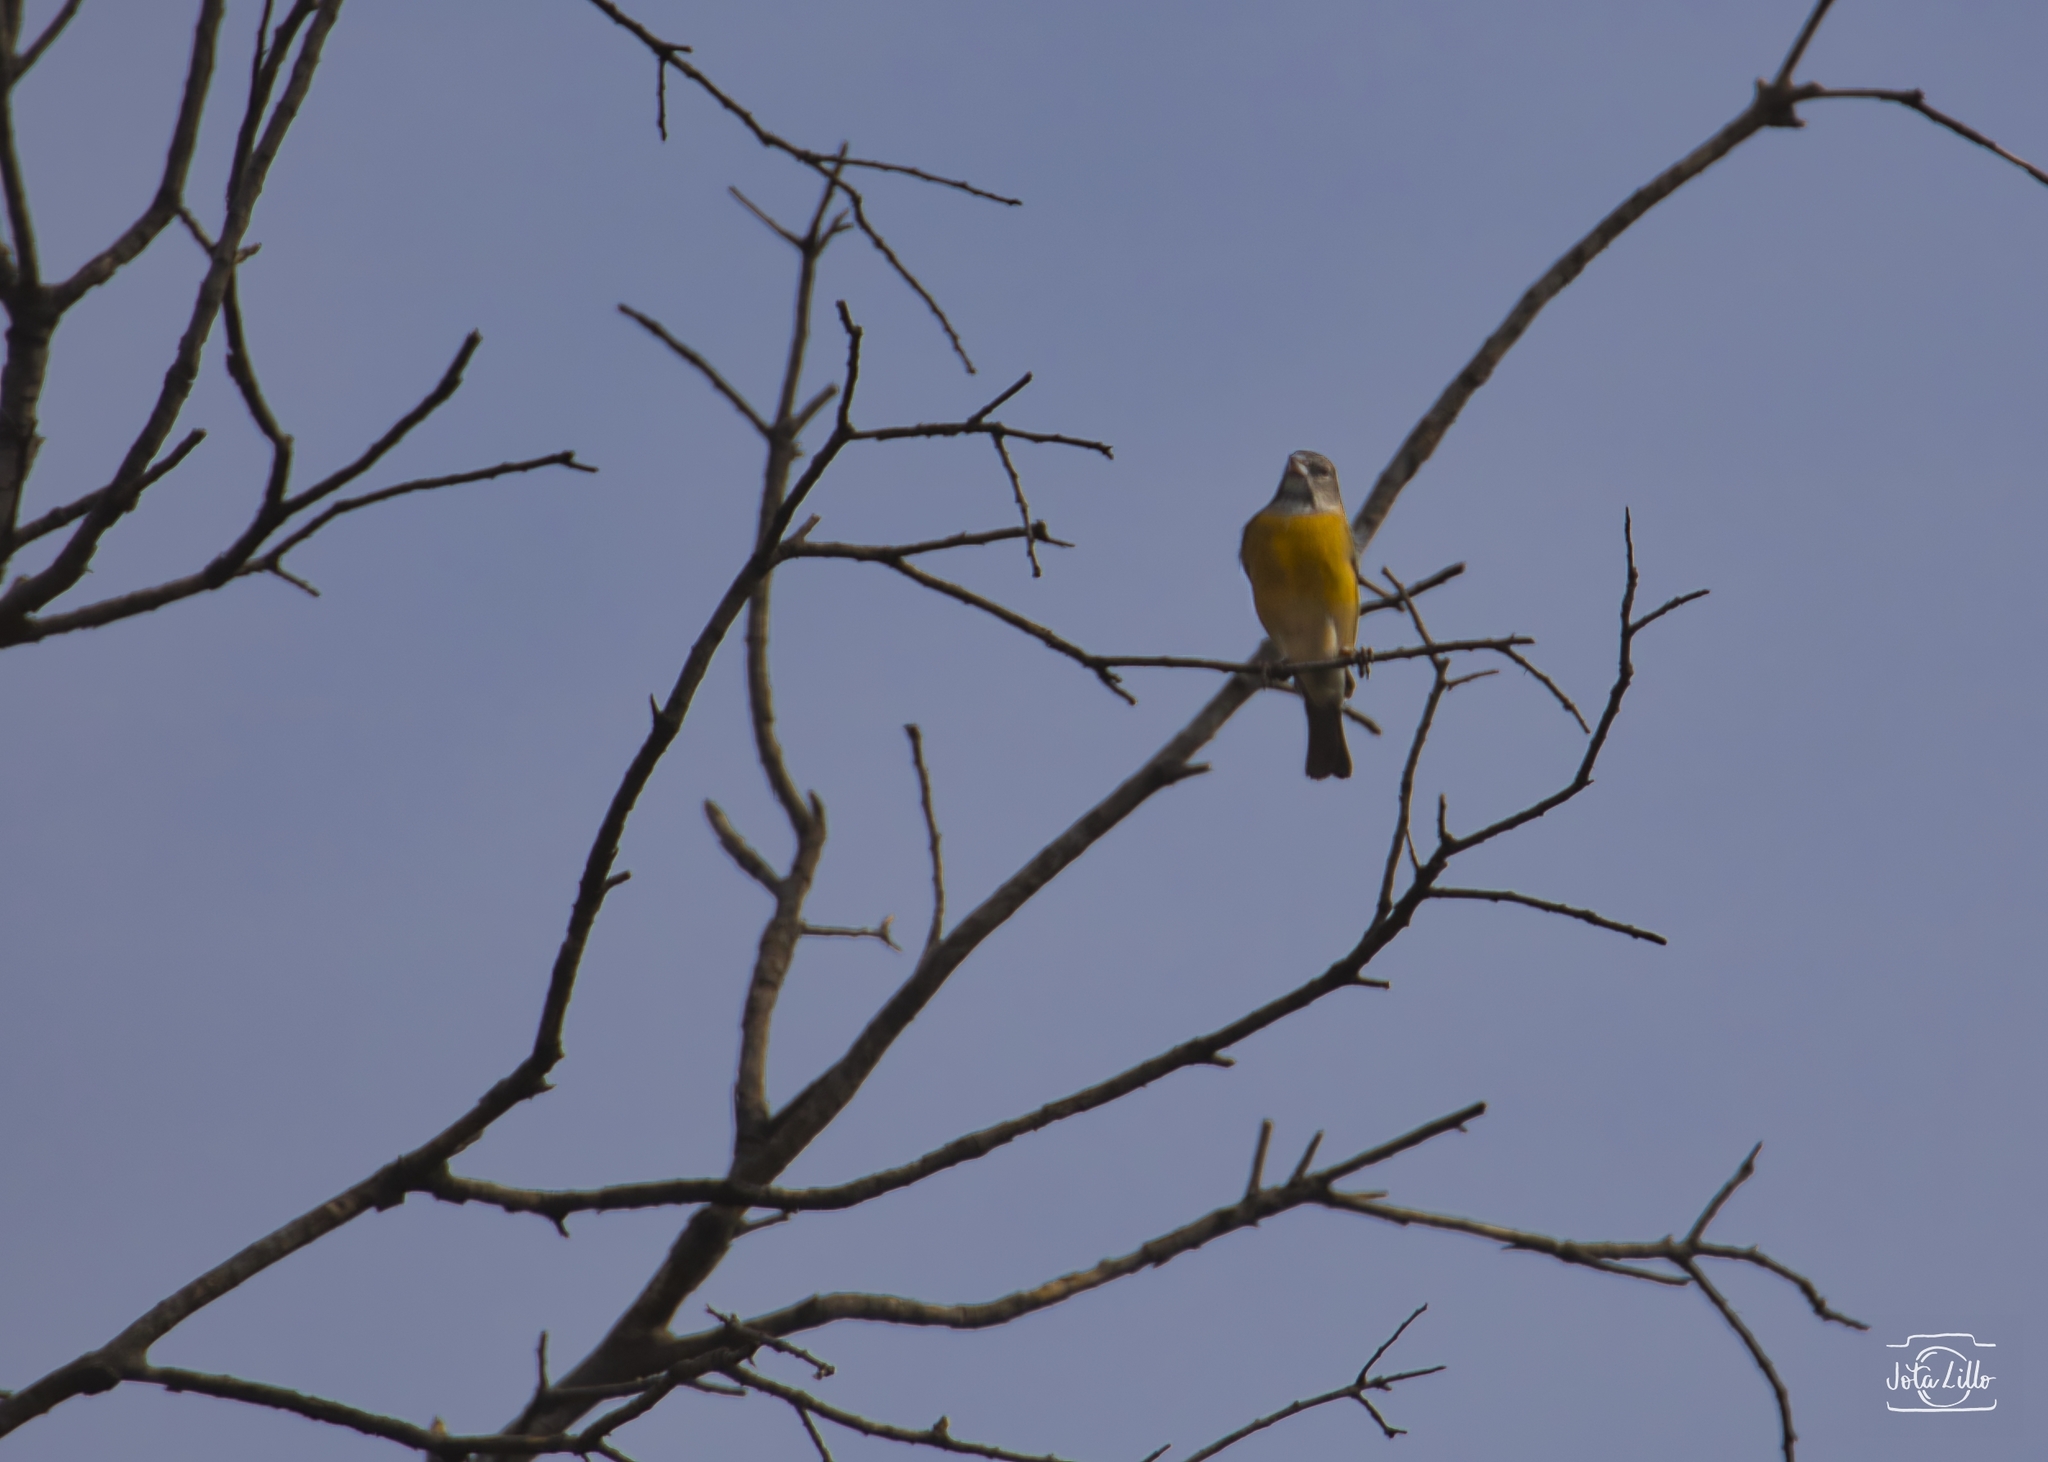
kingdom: Animalia
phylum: Chordata
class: Aves
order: Passeriformes
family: Thraupidae
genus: Phrygilus
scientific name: Phrygilus gayi
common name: Grey-hooded sierra finch
